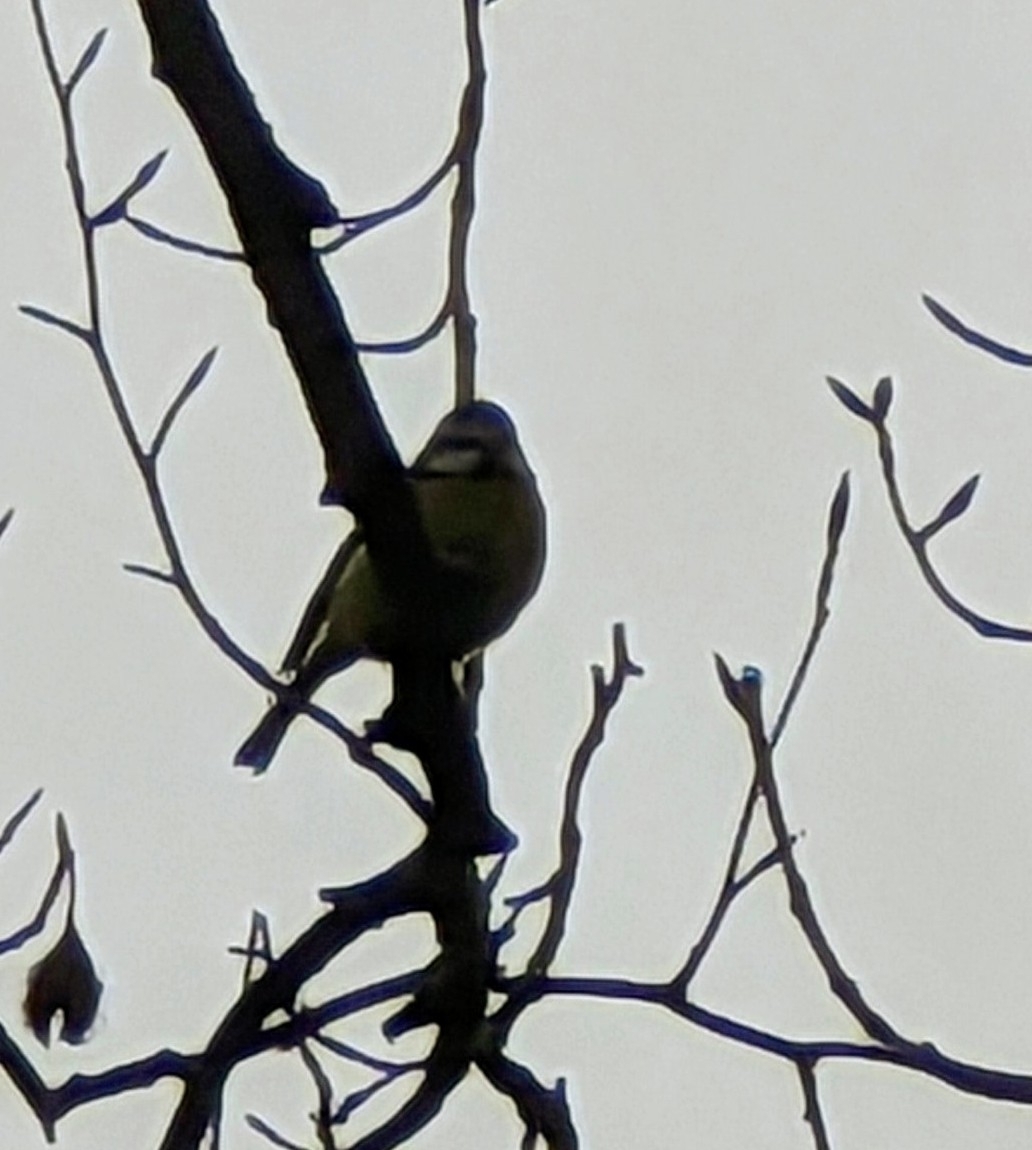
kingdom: Animalia
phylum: Chordata
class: Aves
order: Passeriformes
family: Paridae
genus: Cyanistes
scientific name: Cyanistes caeruleus
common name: Eurasian blue tit
